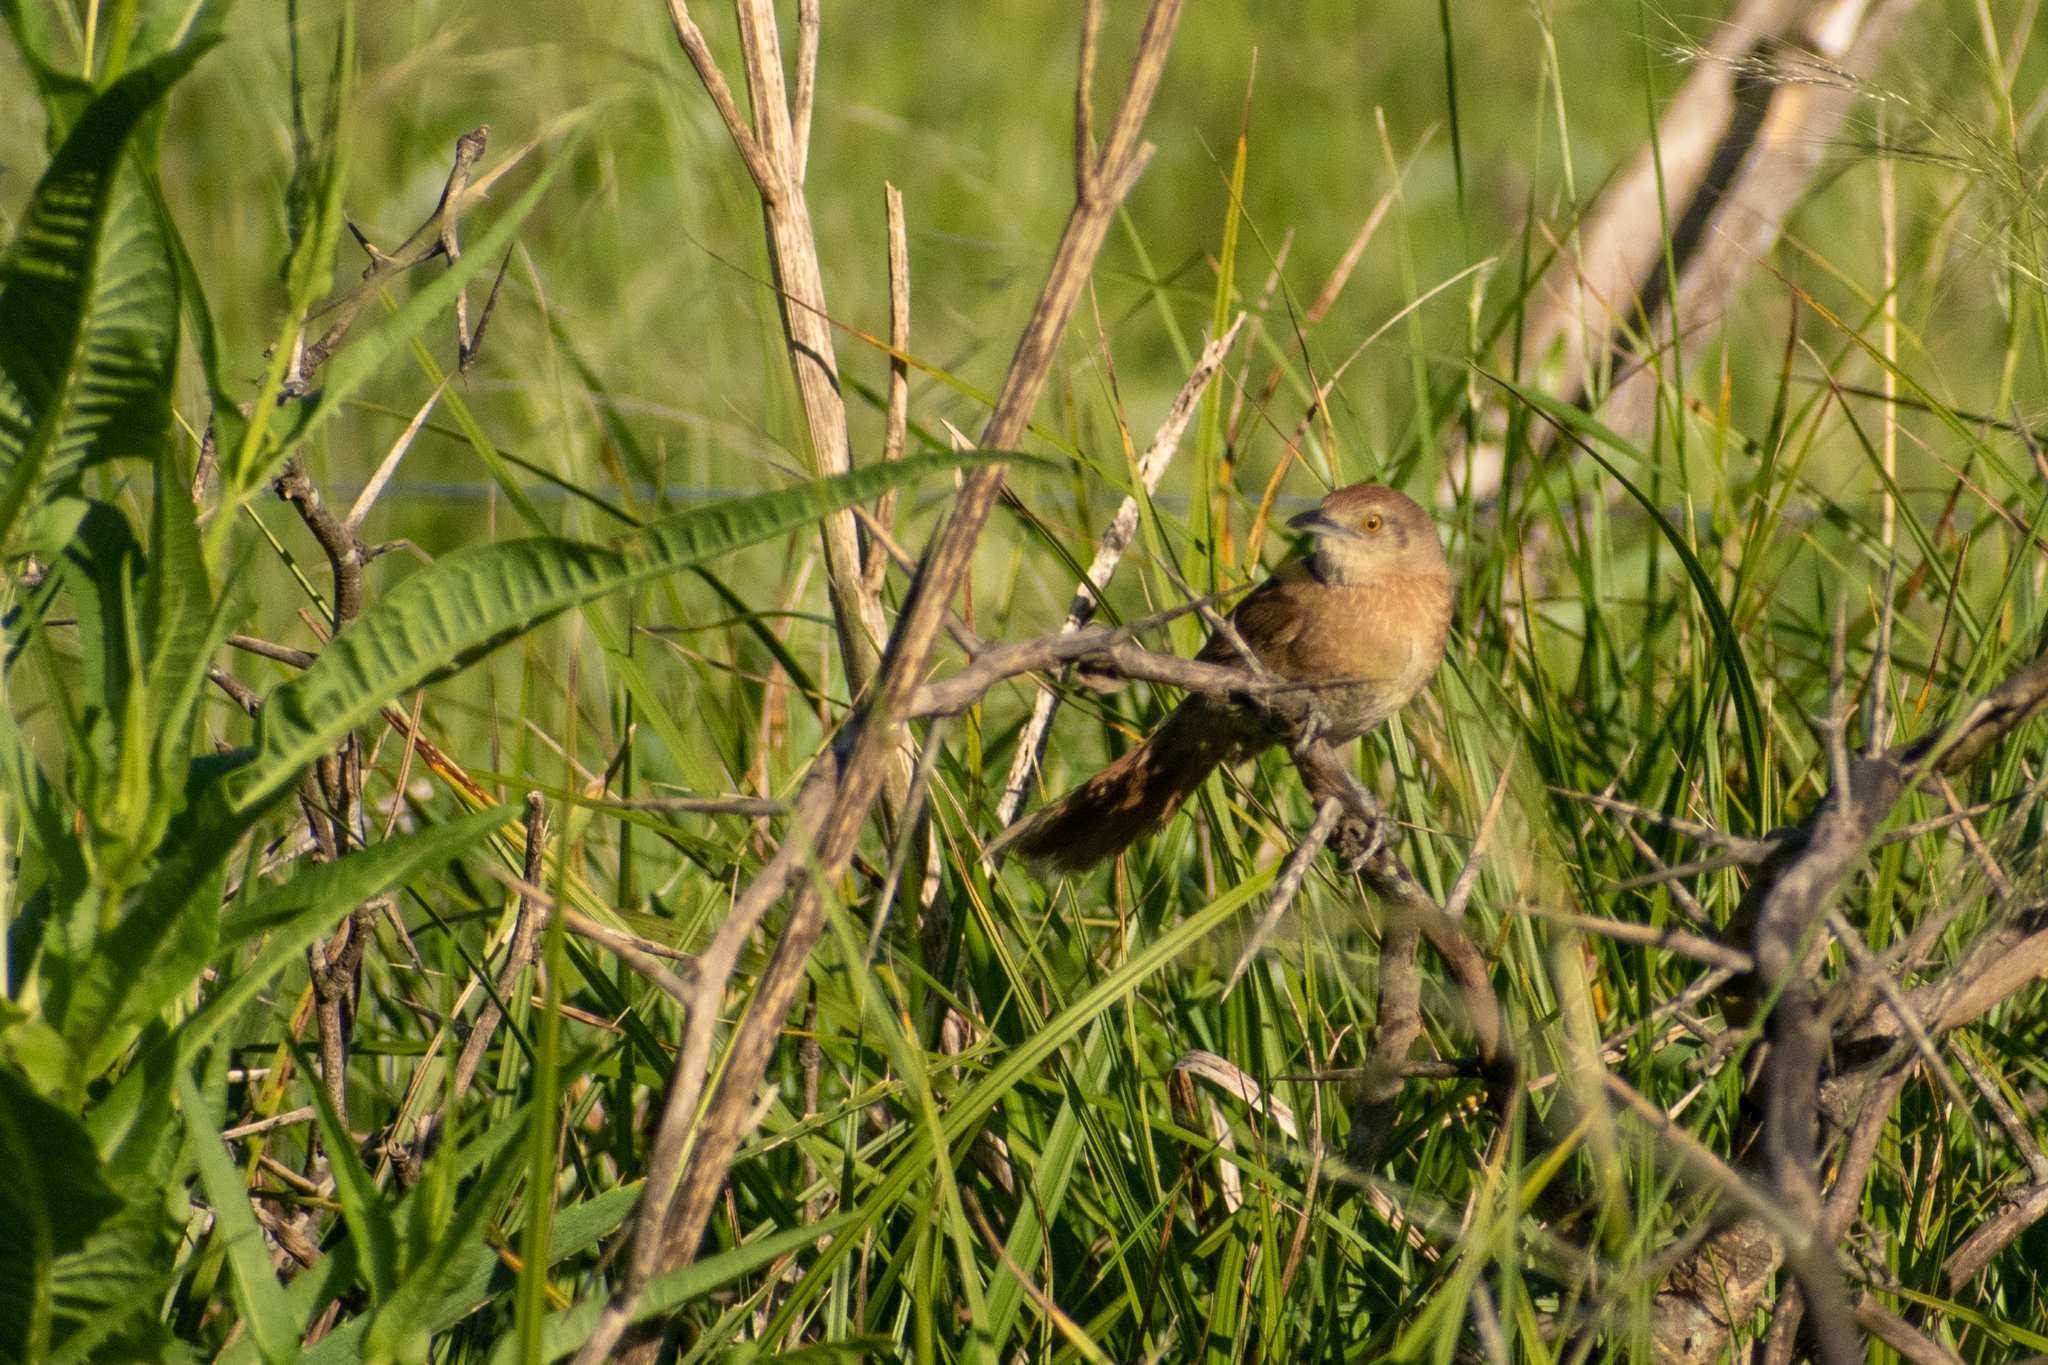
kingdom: Animalia
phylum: Chordata
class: Aves
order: Passeriformes
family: Furnariidae
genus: Phacellodomus
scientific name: Phacellodomus striaticollis
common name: Freckle-breasted thornbird
